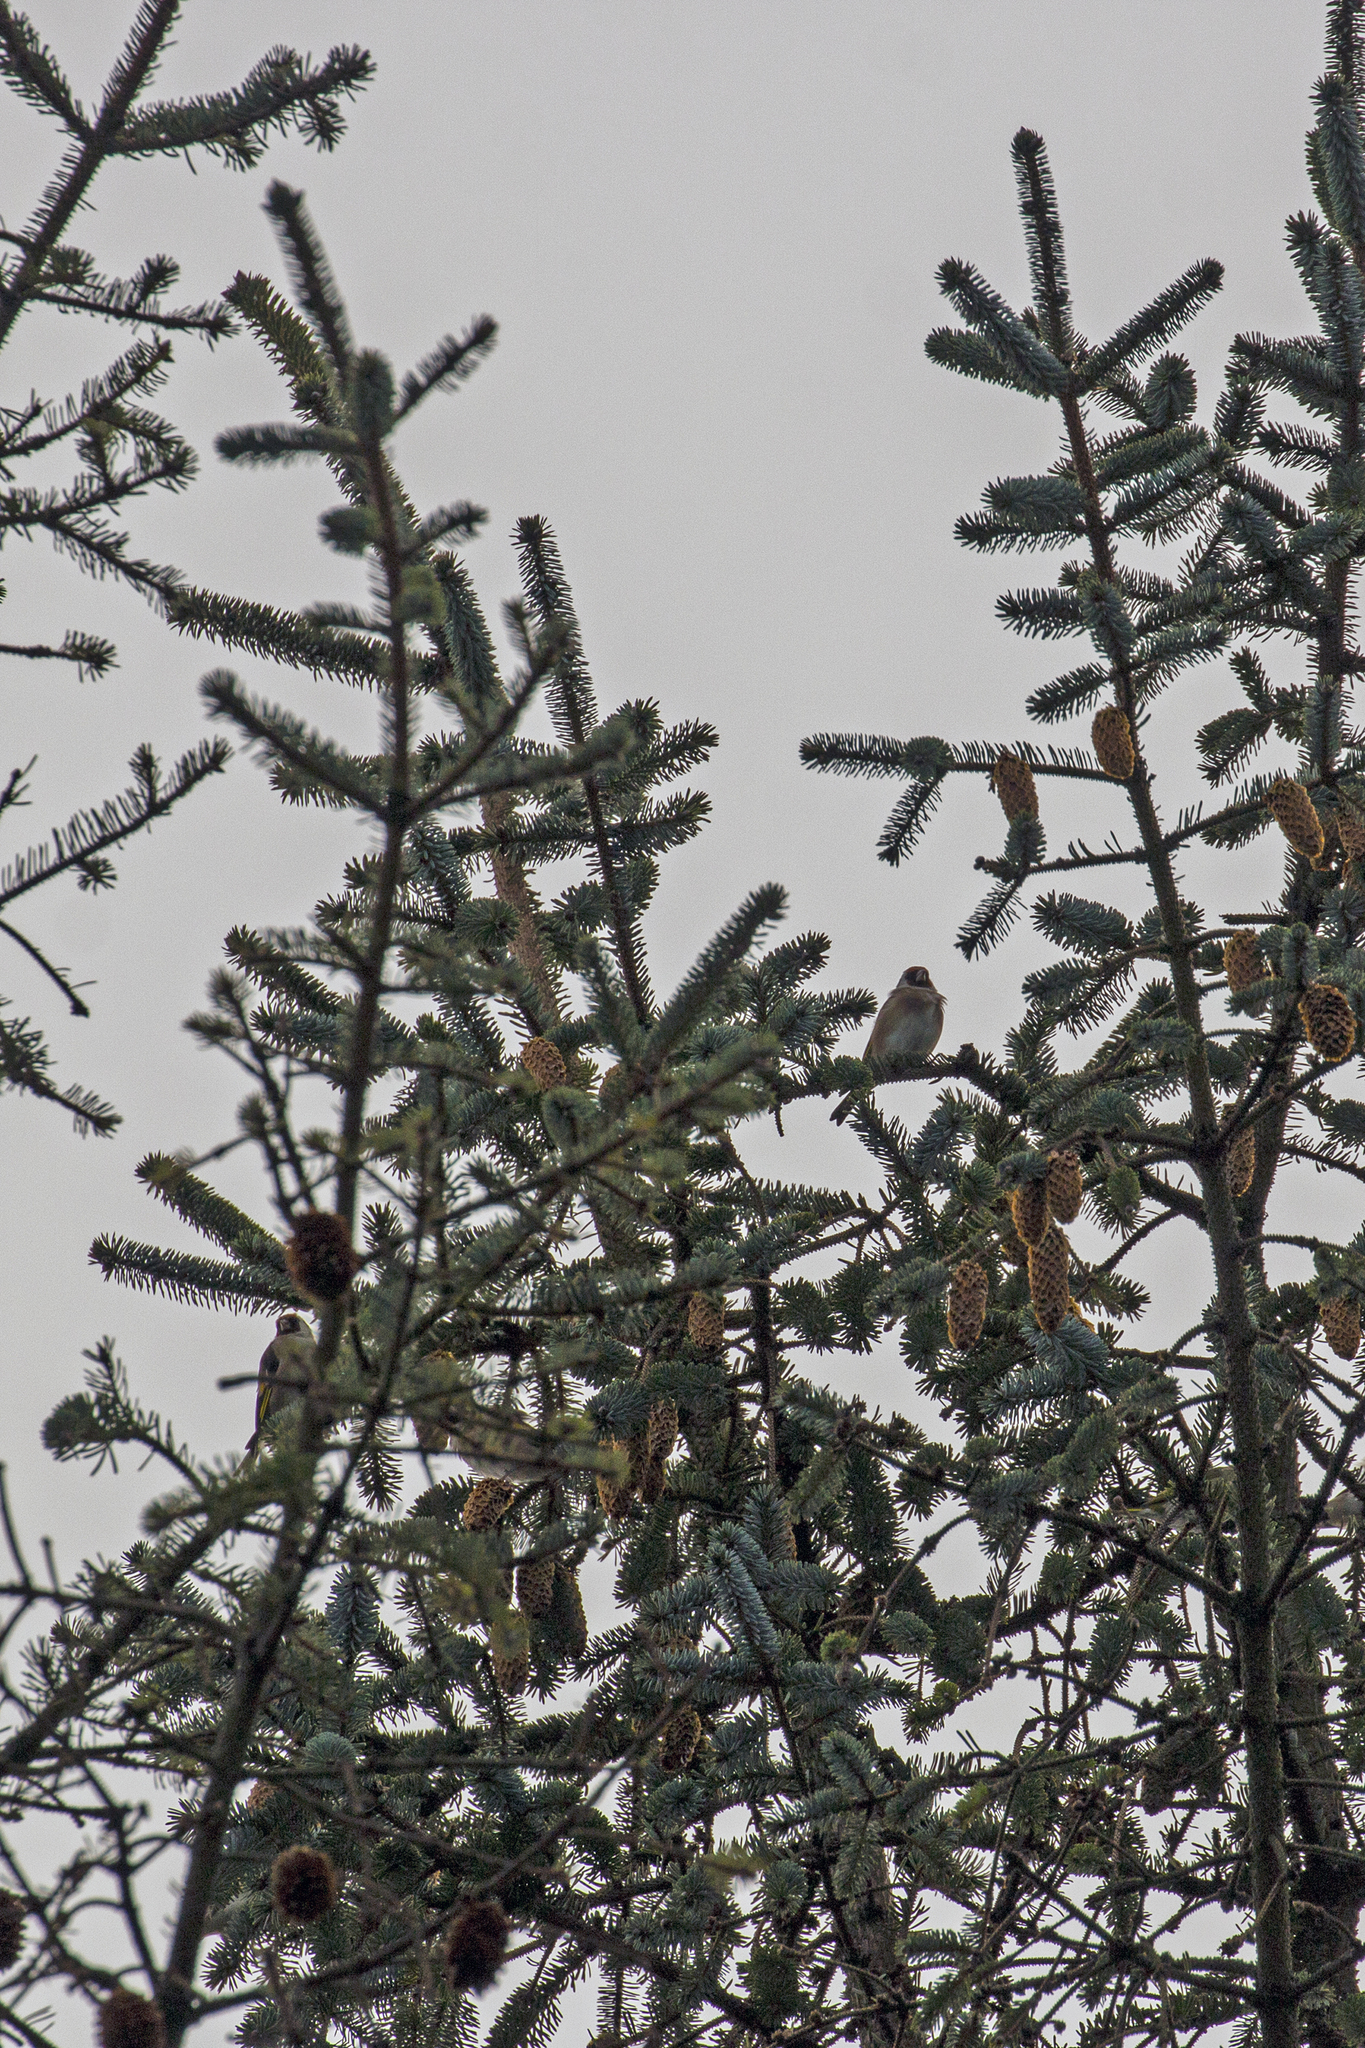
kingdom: Animalia
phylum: Chordata
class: Aves
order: Passeriformes
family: Fringillidae
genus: Carduelis
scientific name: Carduelis carduelis
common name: European goldfinch
